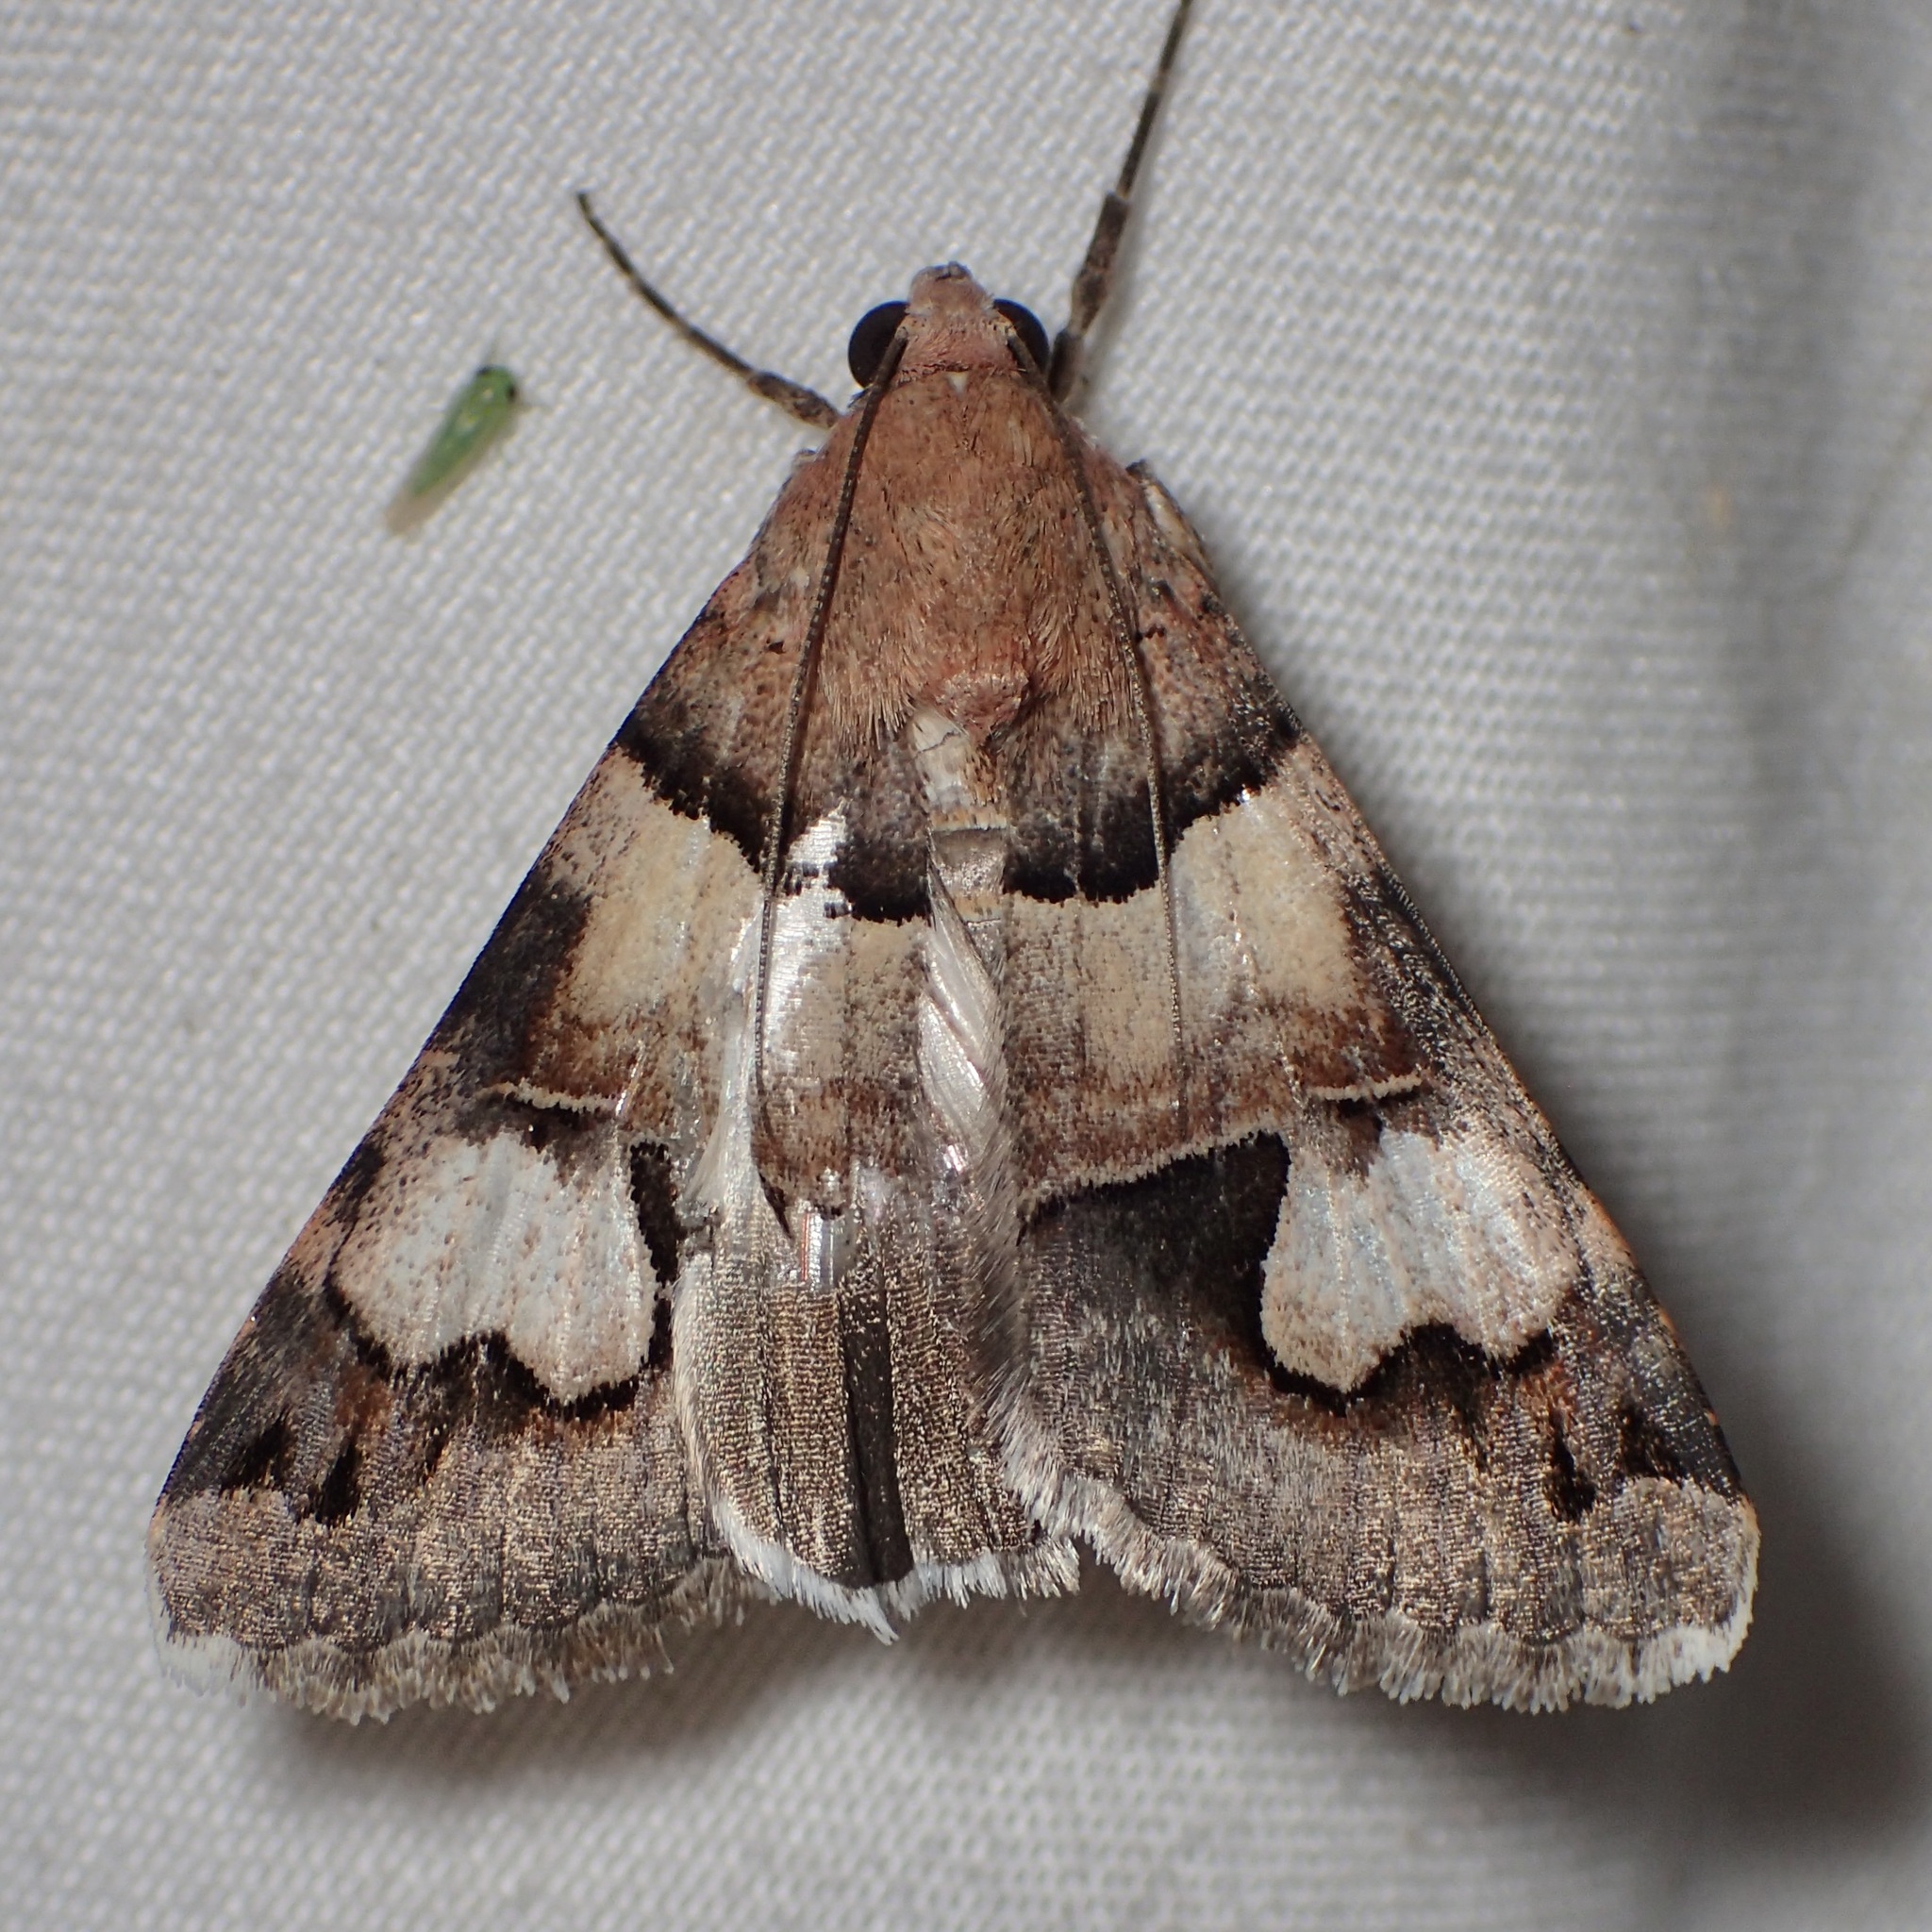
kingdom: Animalia
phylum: Arthropoda
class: Insecta
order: Lepidoptera
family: Erebidae
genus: Drasteria
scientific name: Drasteria pallescens
